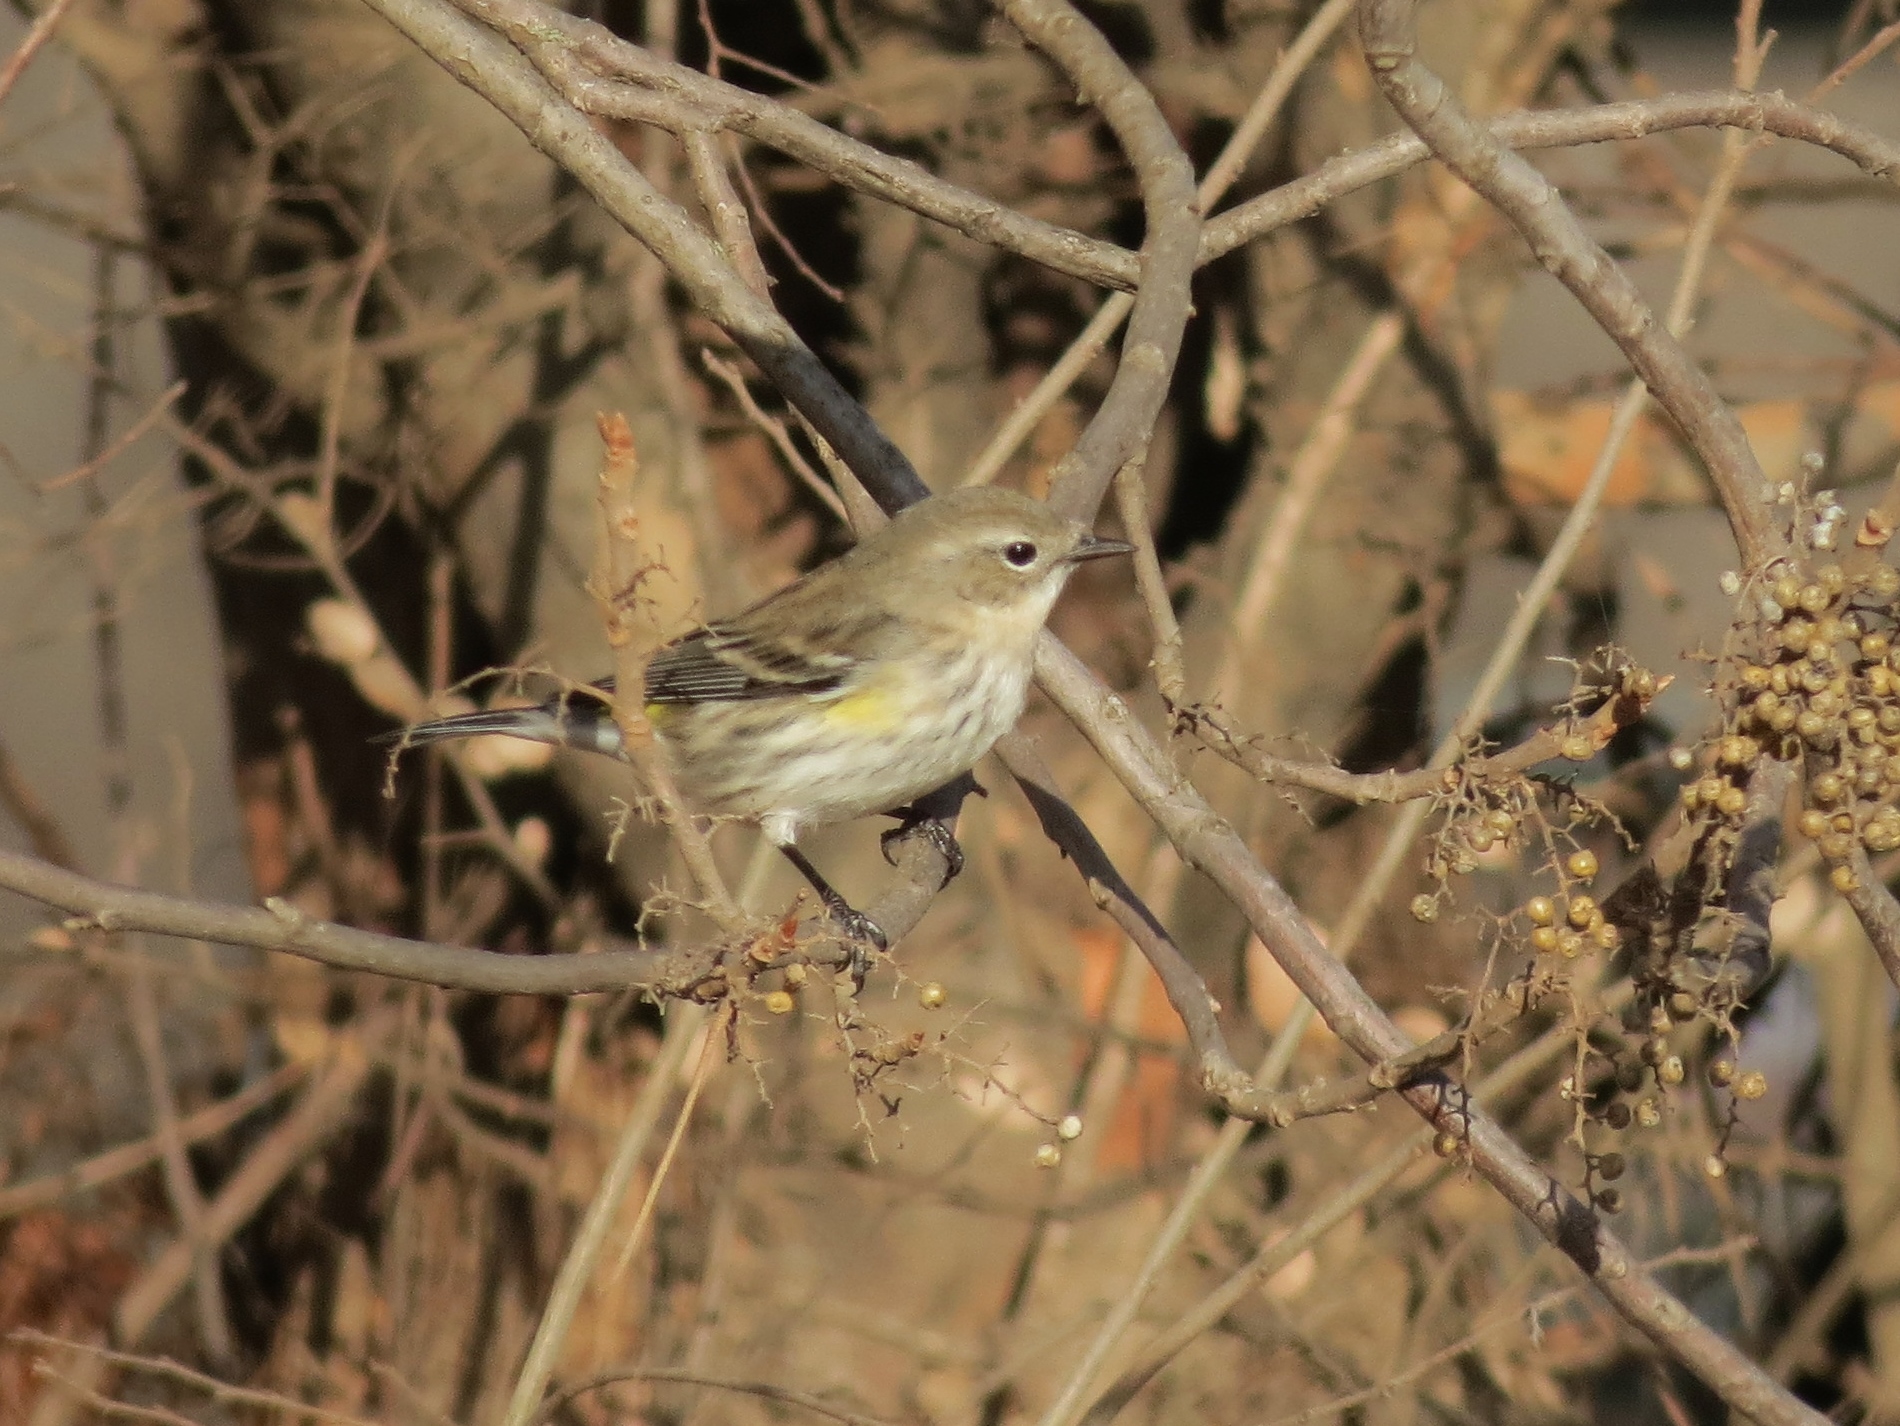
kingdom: Animalia
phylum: Chordata
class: Aves
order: Passeriformes
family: Parulidae
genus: Setophaga
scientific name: Setophaga coronata
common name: Myrtle warbler
